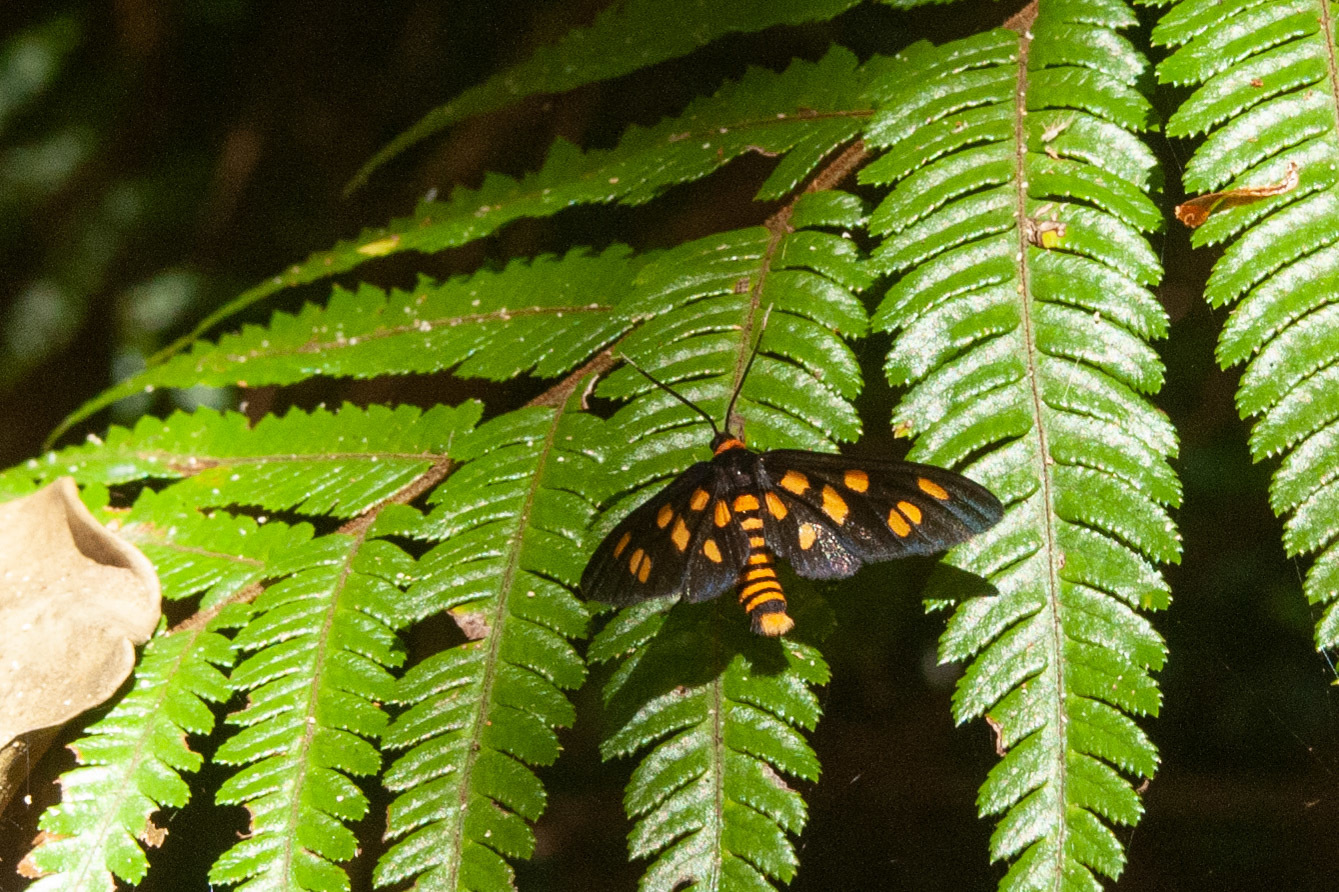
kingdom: Animalia
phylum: Arthropoda
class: Insecta
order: Lepidoptera
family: Erebidae
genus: Amata
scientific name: Amata nigriceps
